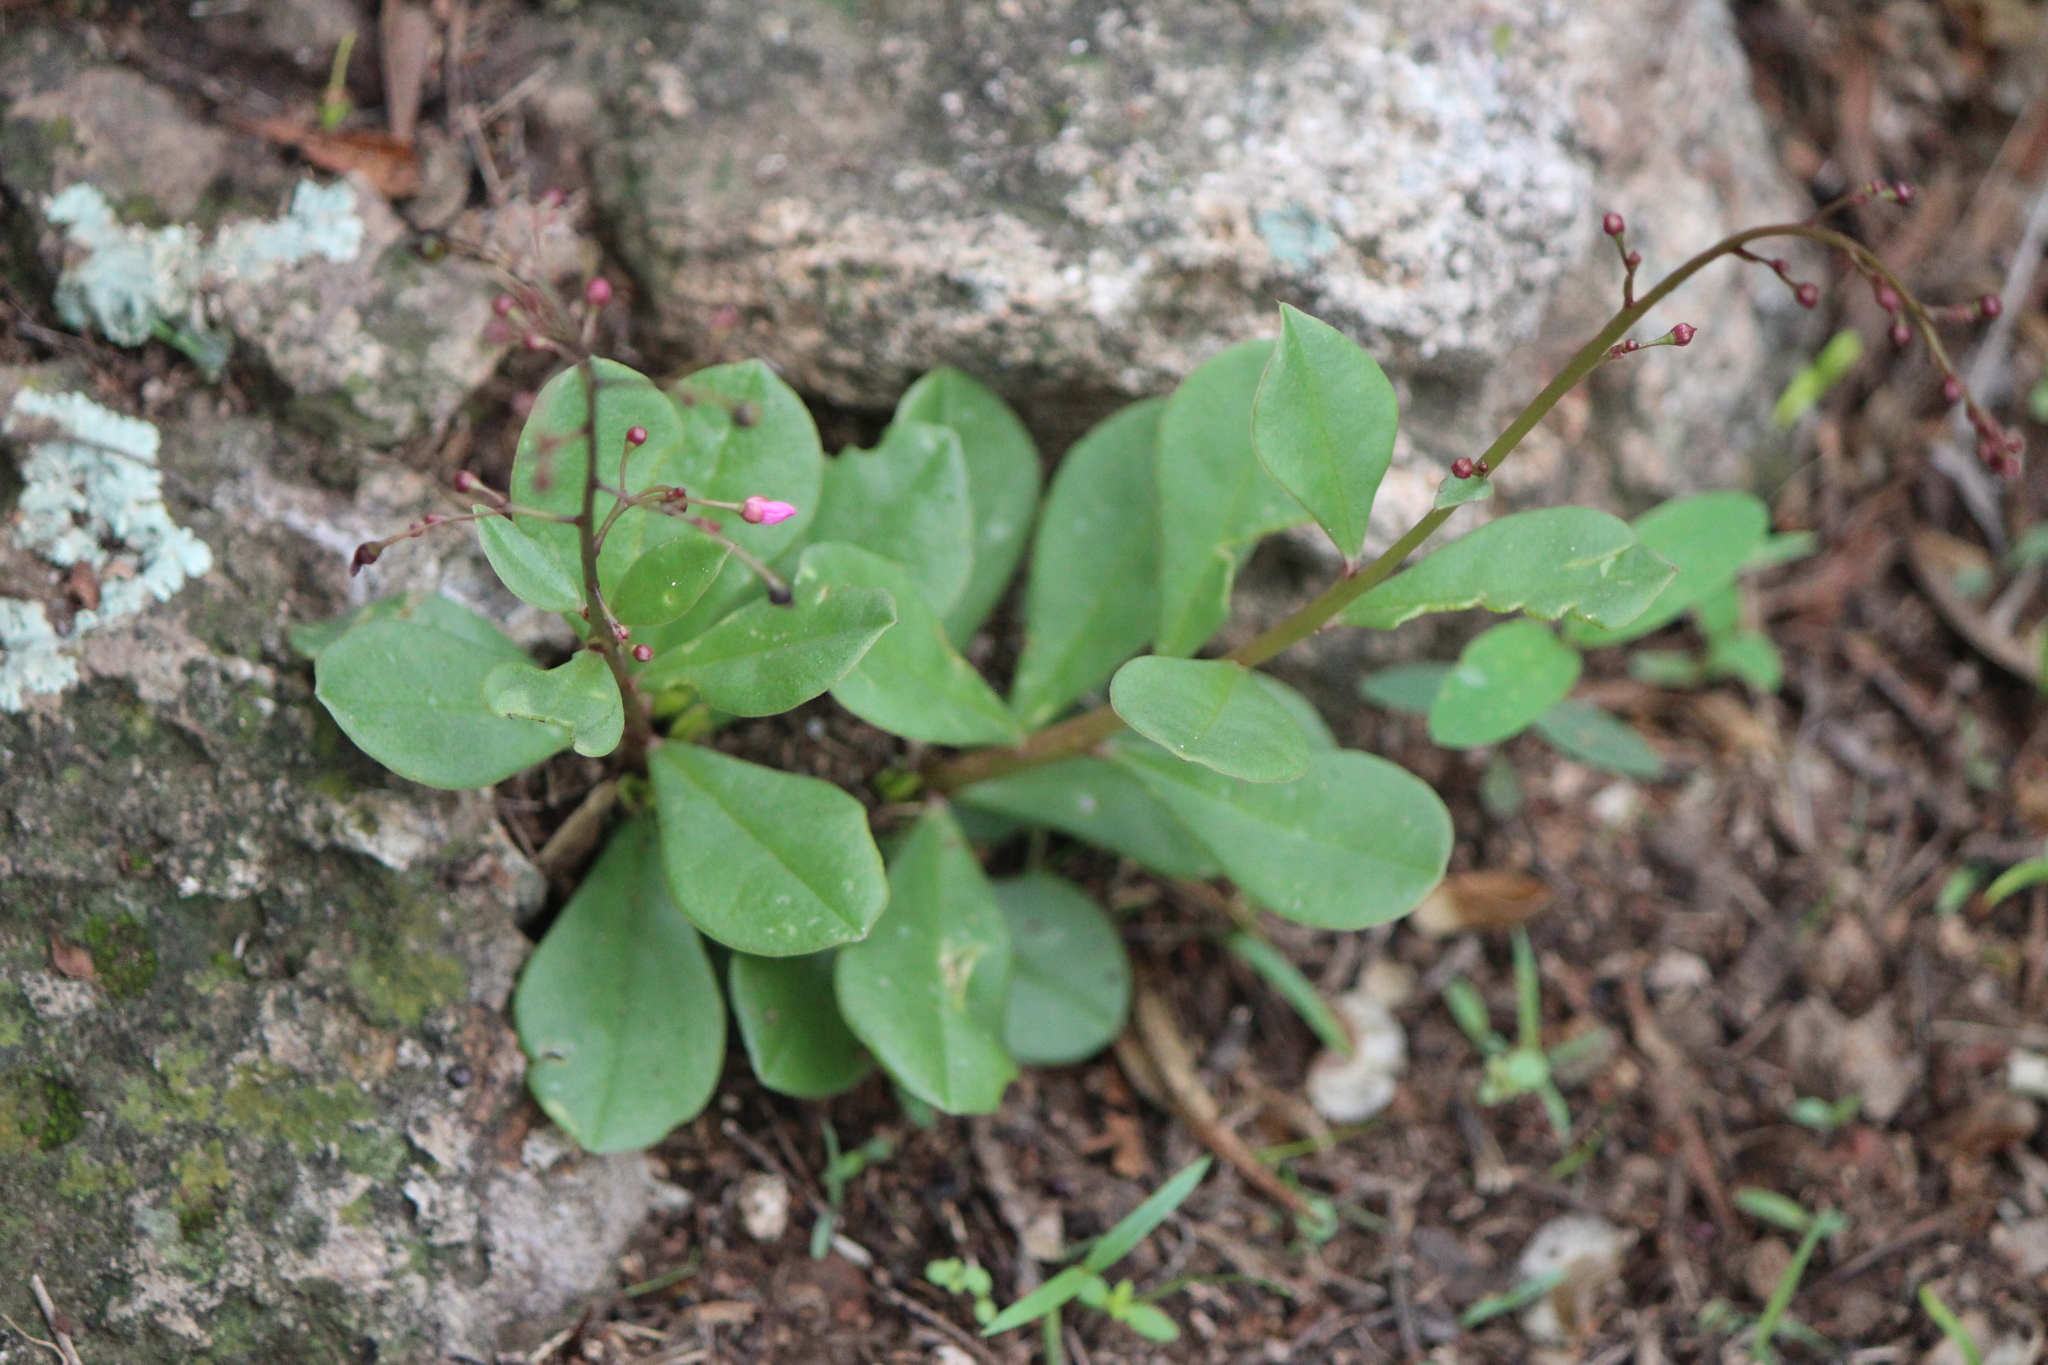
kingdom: Plantae
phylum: Tracheophyta
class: Magnoliopsida
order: Ericales
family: Primulaceae
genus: Samolus
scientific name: Samolus ebracteatus
